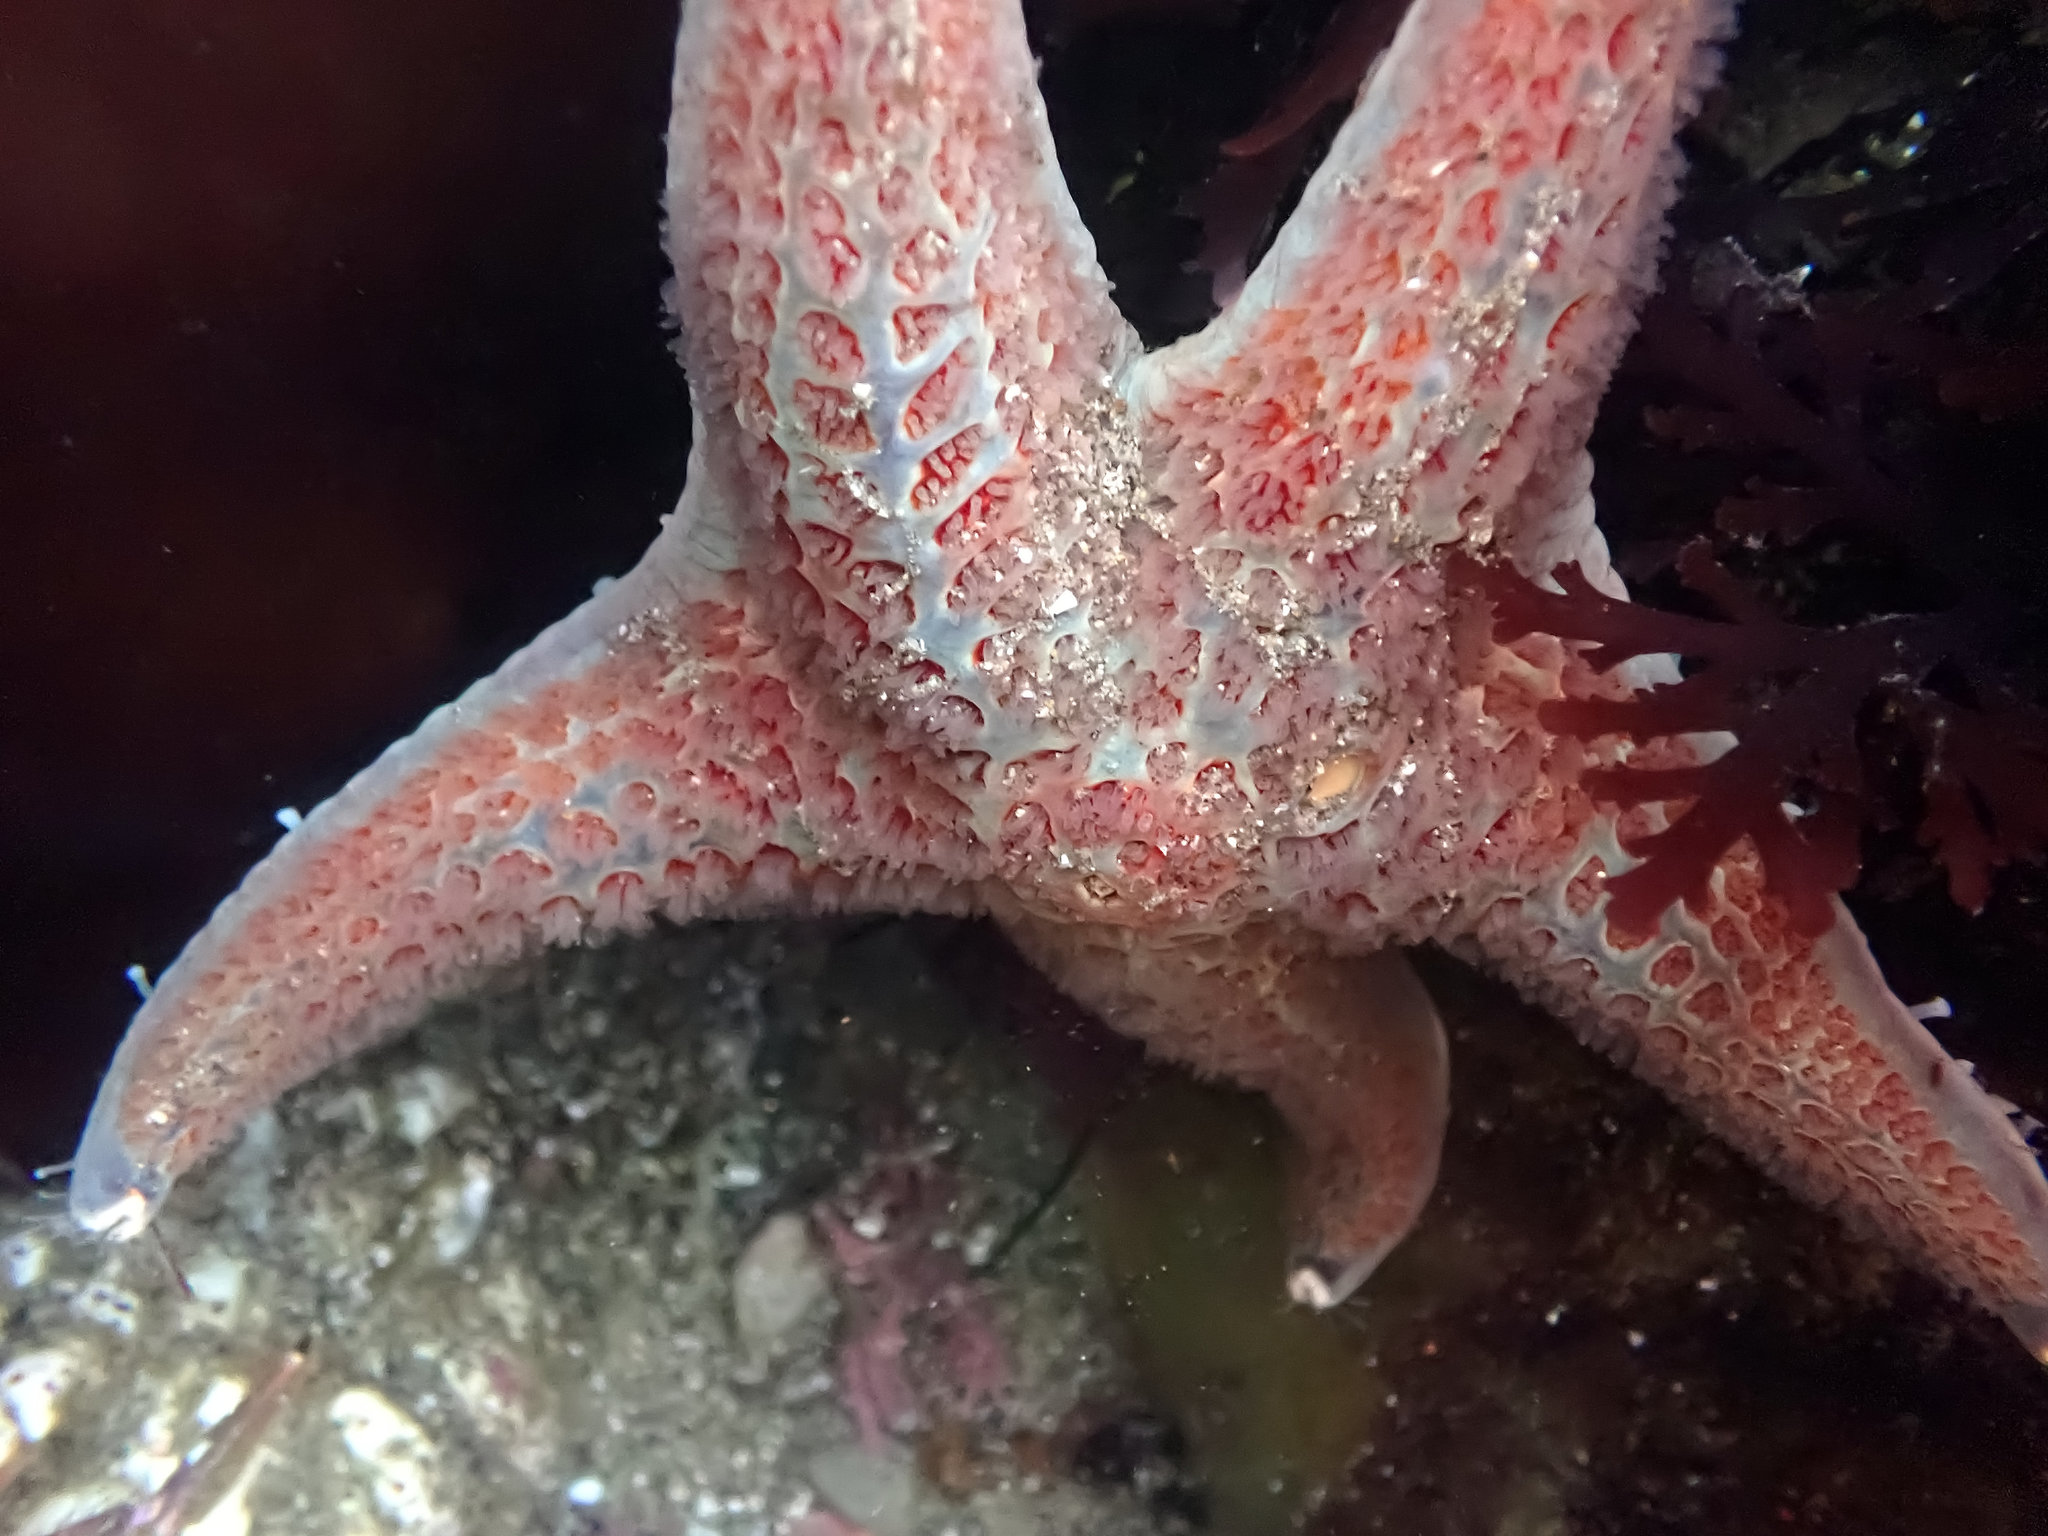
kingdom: Animalia
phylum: Echinodermata
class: Asteroidea
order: Valvatida
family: Asteropseidae
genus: Dermasterias
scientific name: Dermasterias imbricata
